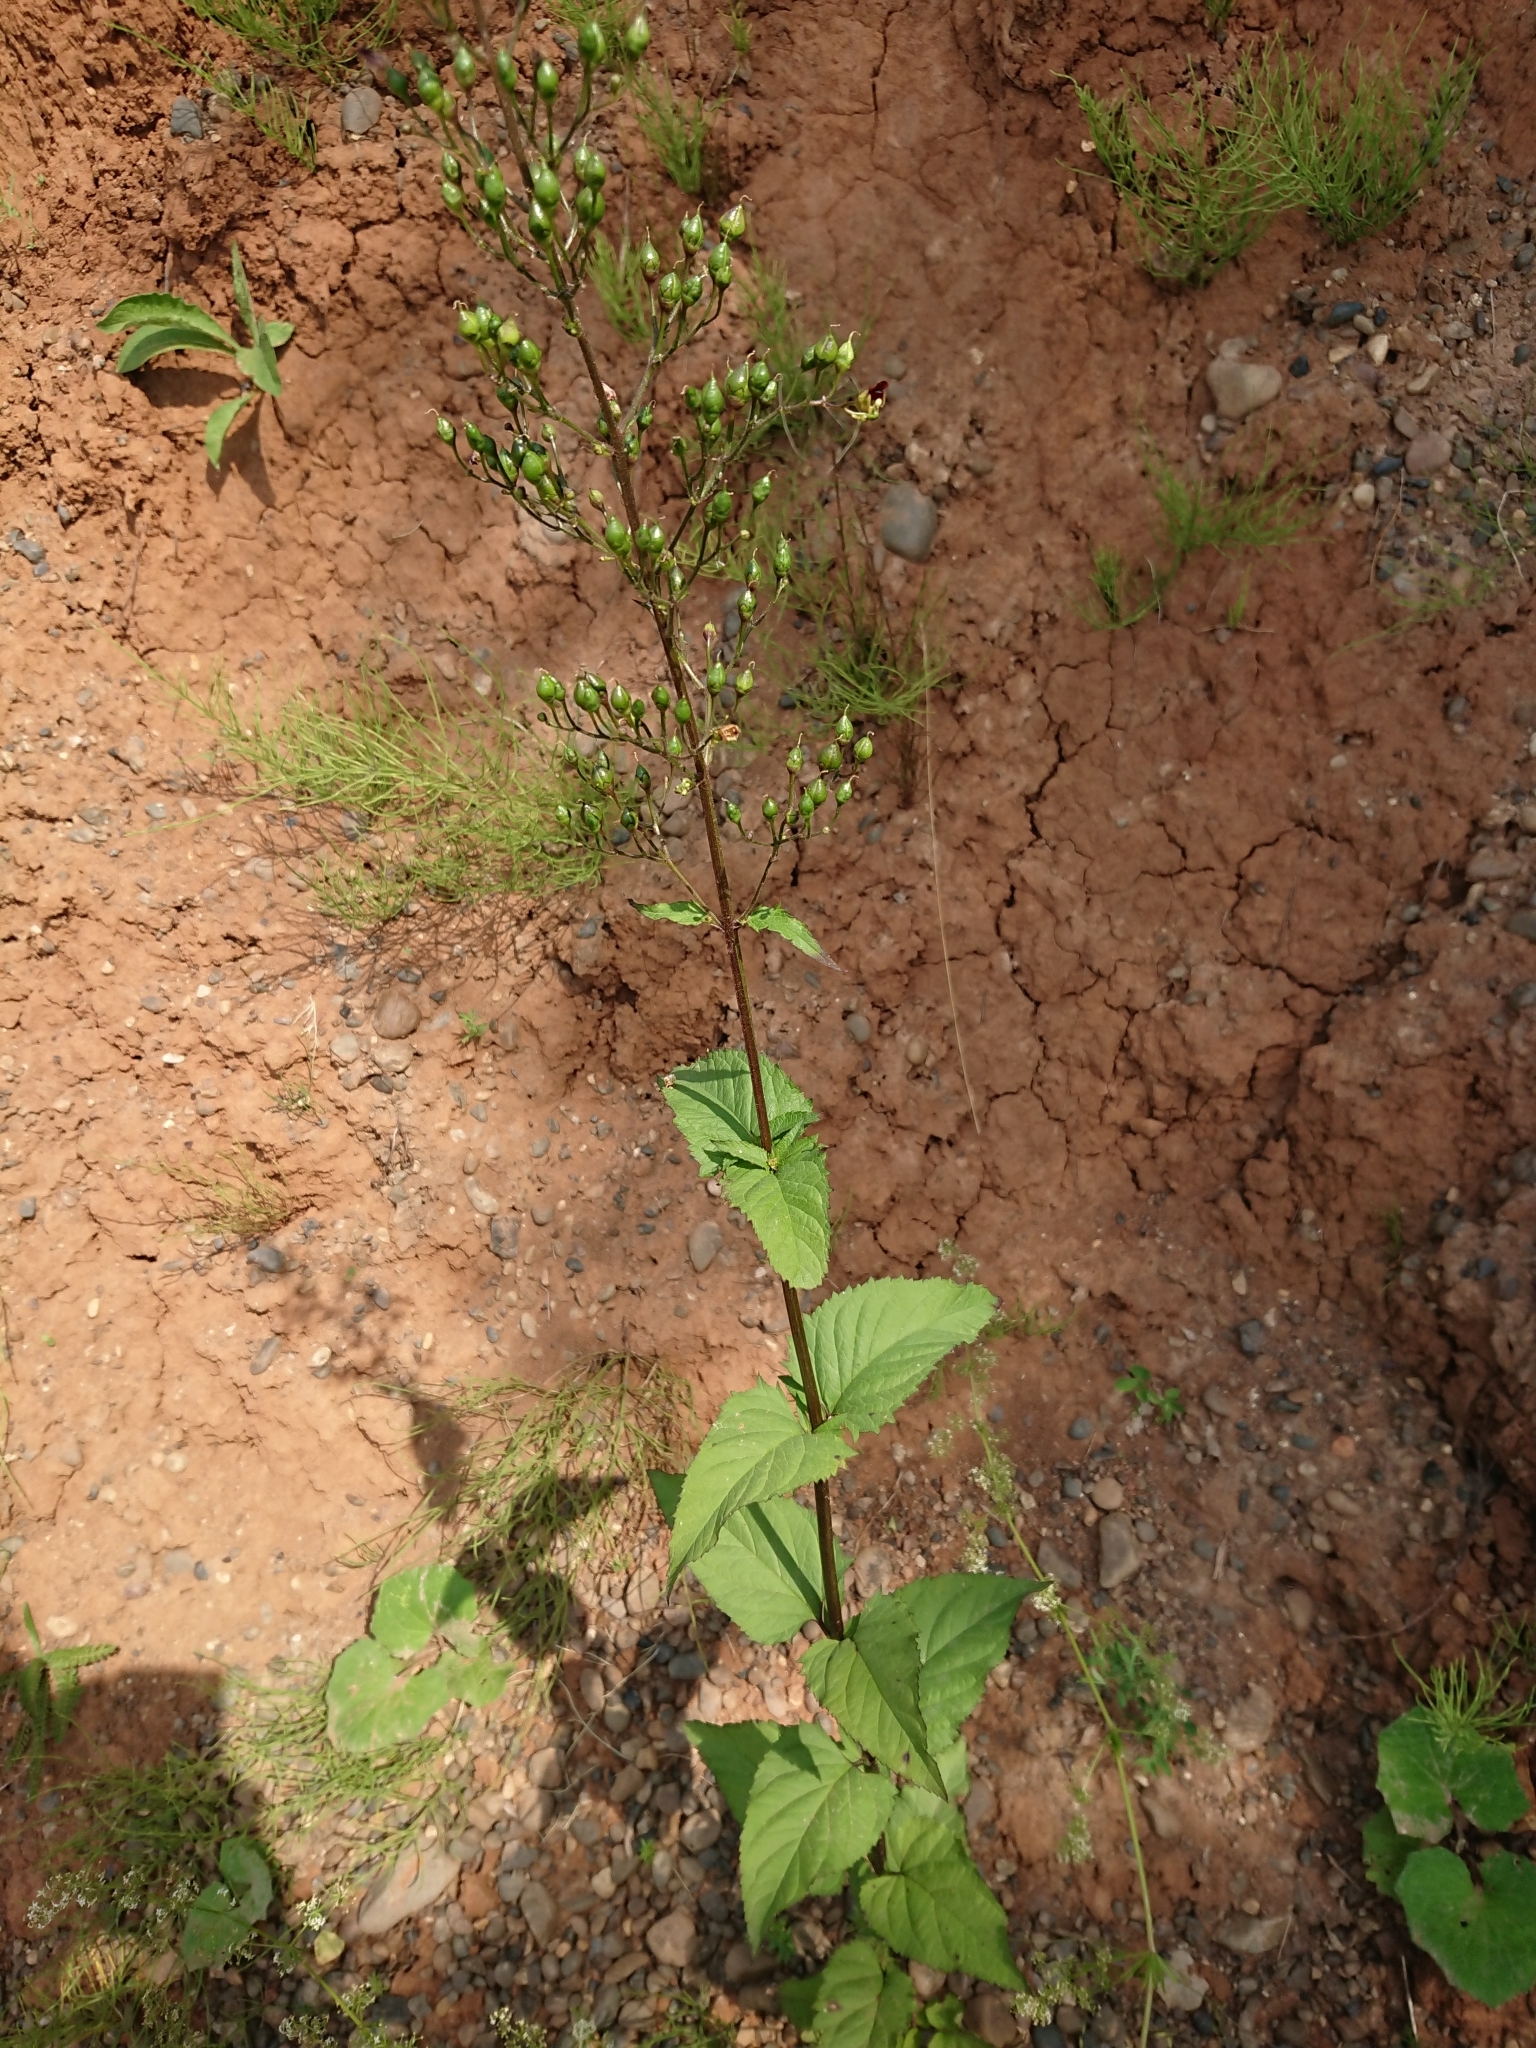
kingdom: Plantae
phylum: Tracheophyta
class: Magnoliopsida
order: Lamiales
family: Scrophulariaceae
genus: Scrophularia
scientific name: Scrophularia nodosa
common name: Common figwort
